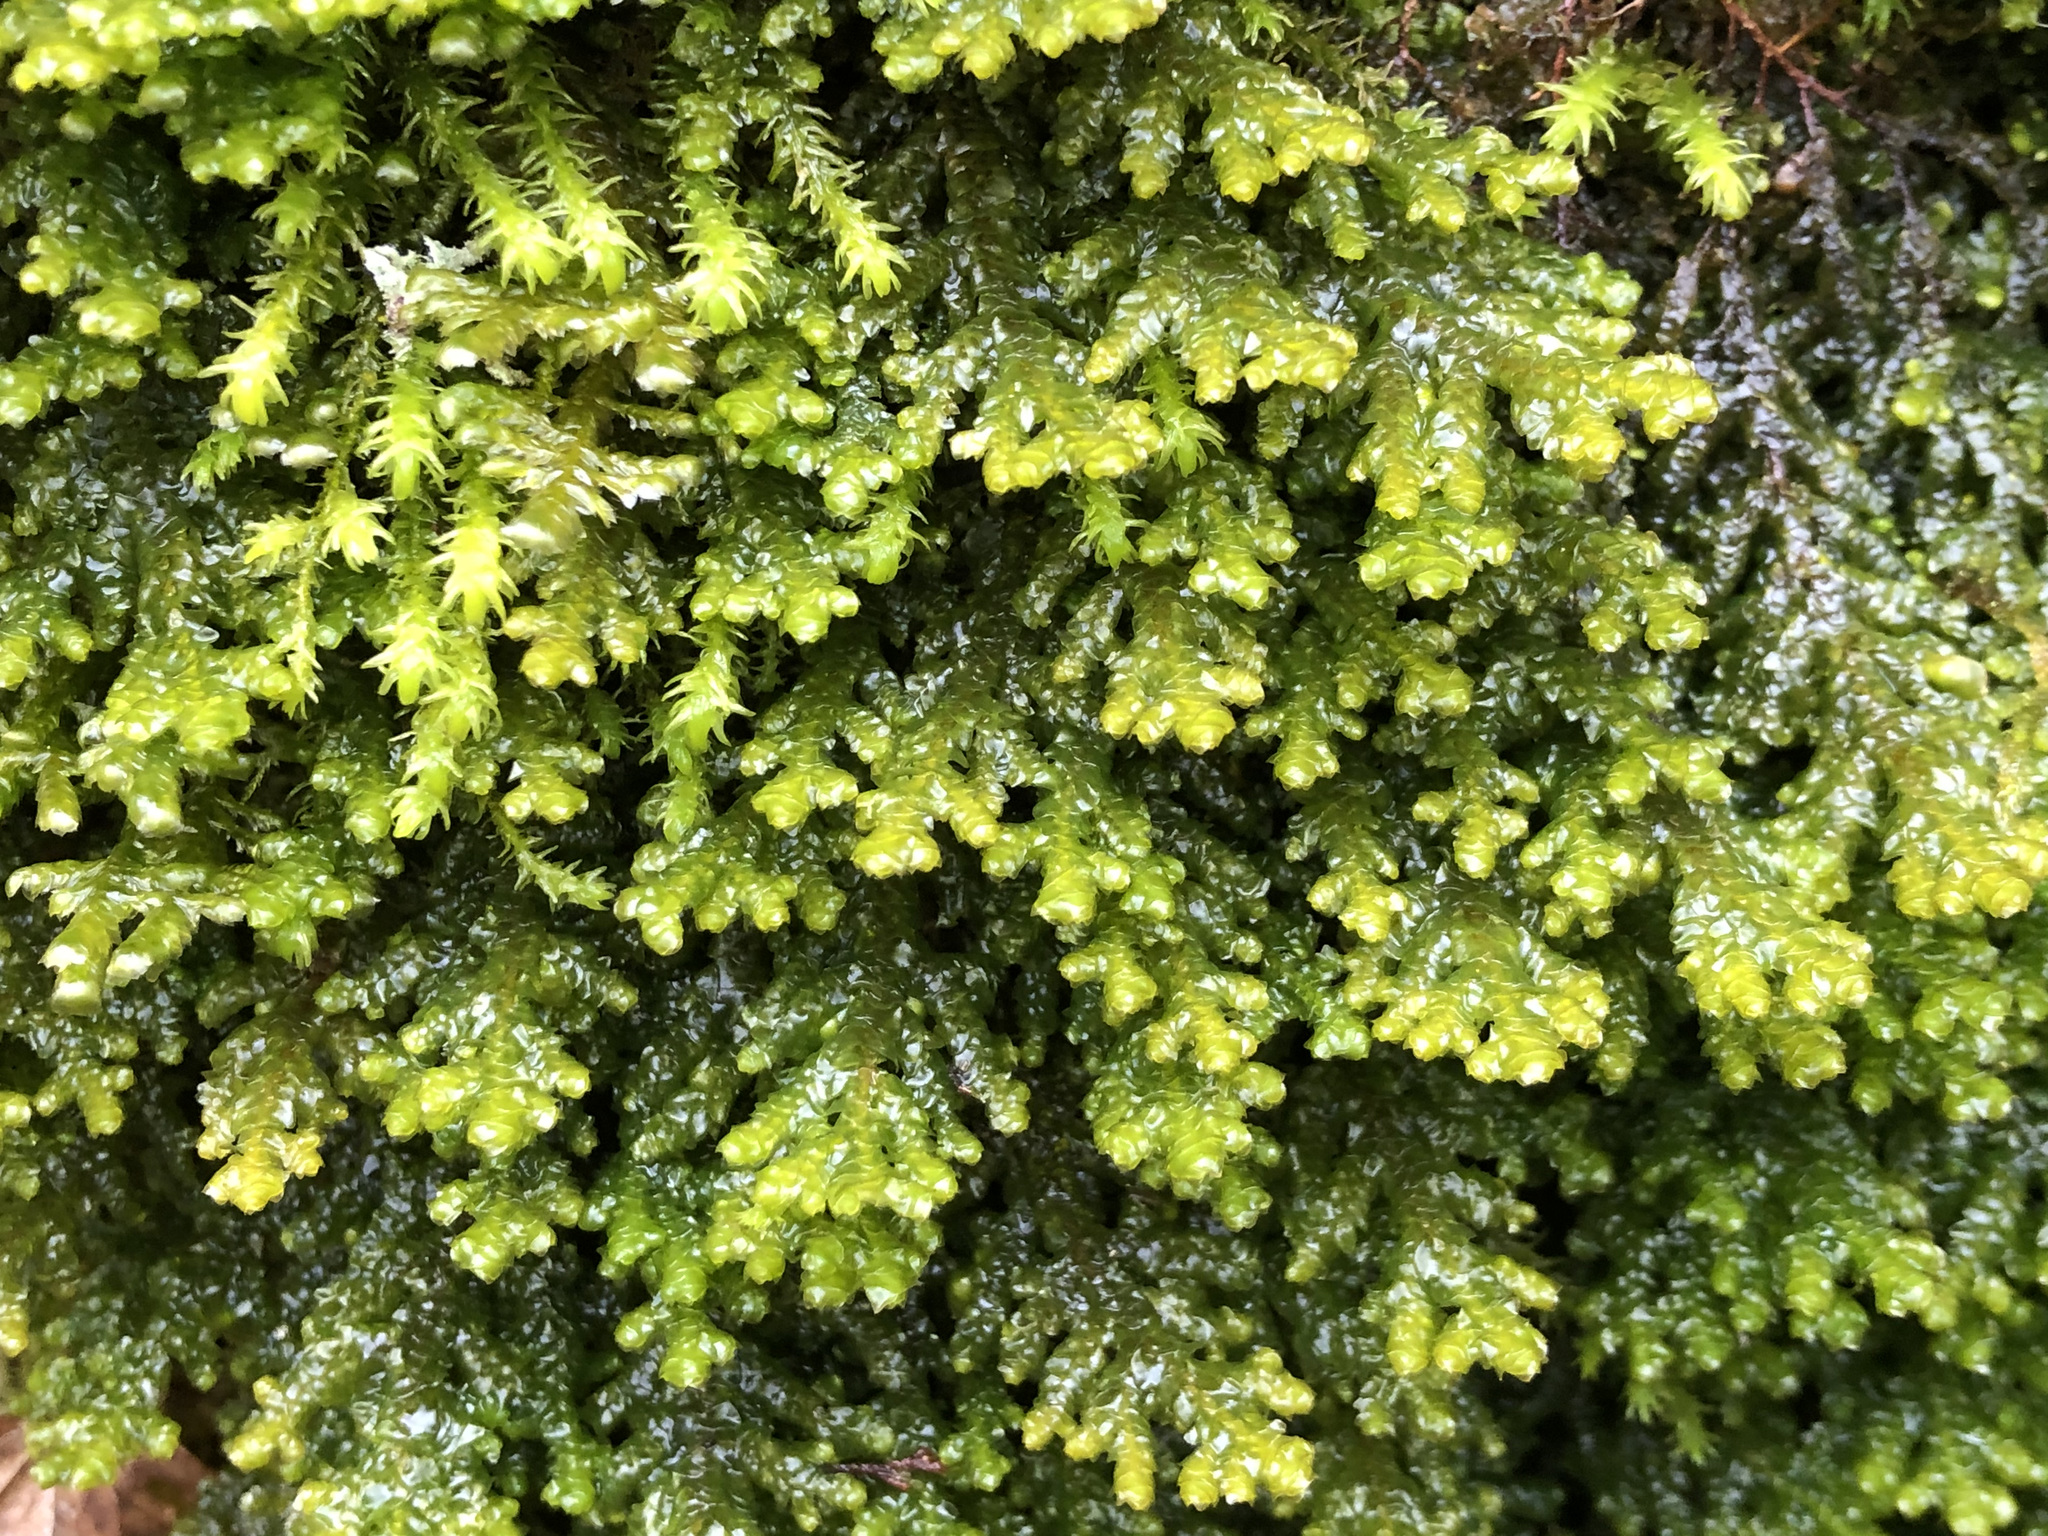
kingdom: Plantae
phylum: Marchantiophyta
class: Jungermanniopsida
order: Porellales
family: Porellaceae
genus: Porella
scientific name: Porella platyphylla
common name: Wall scalewort
